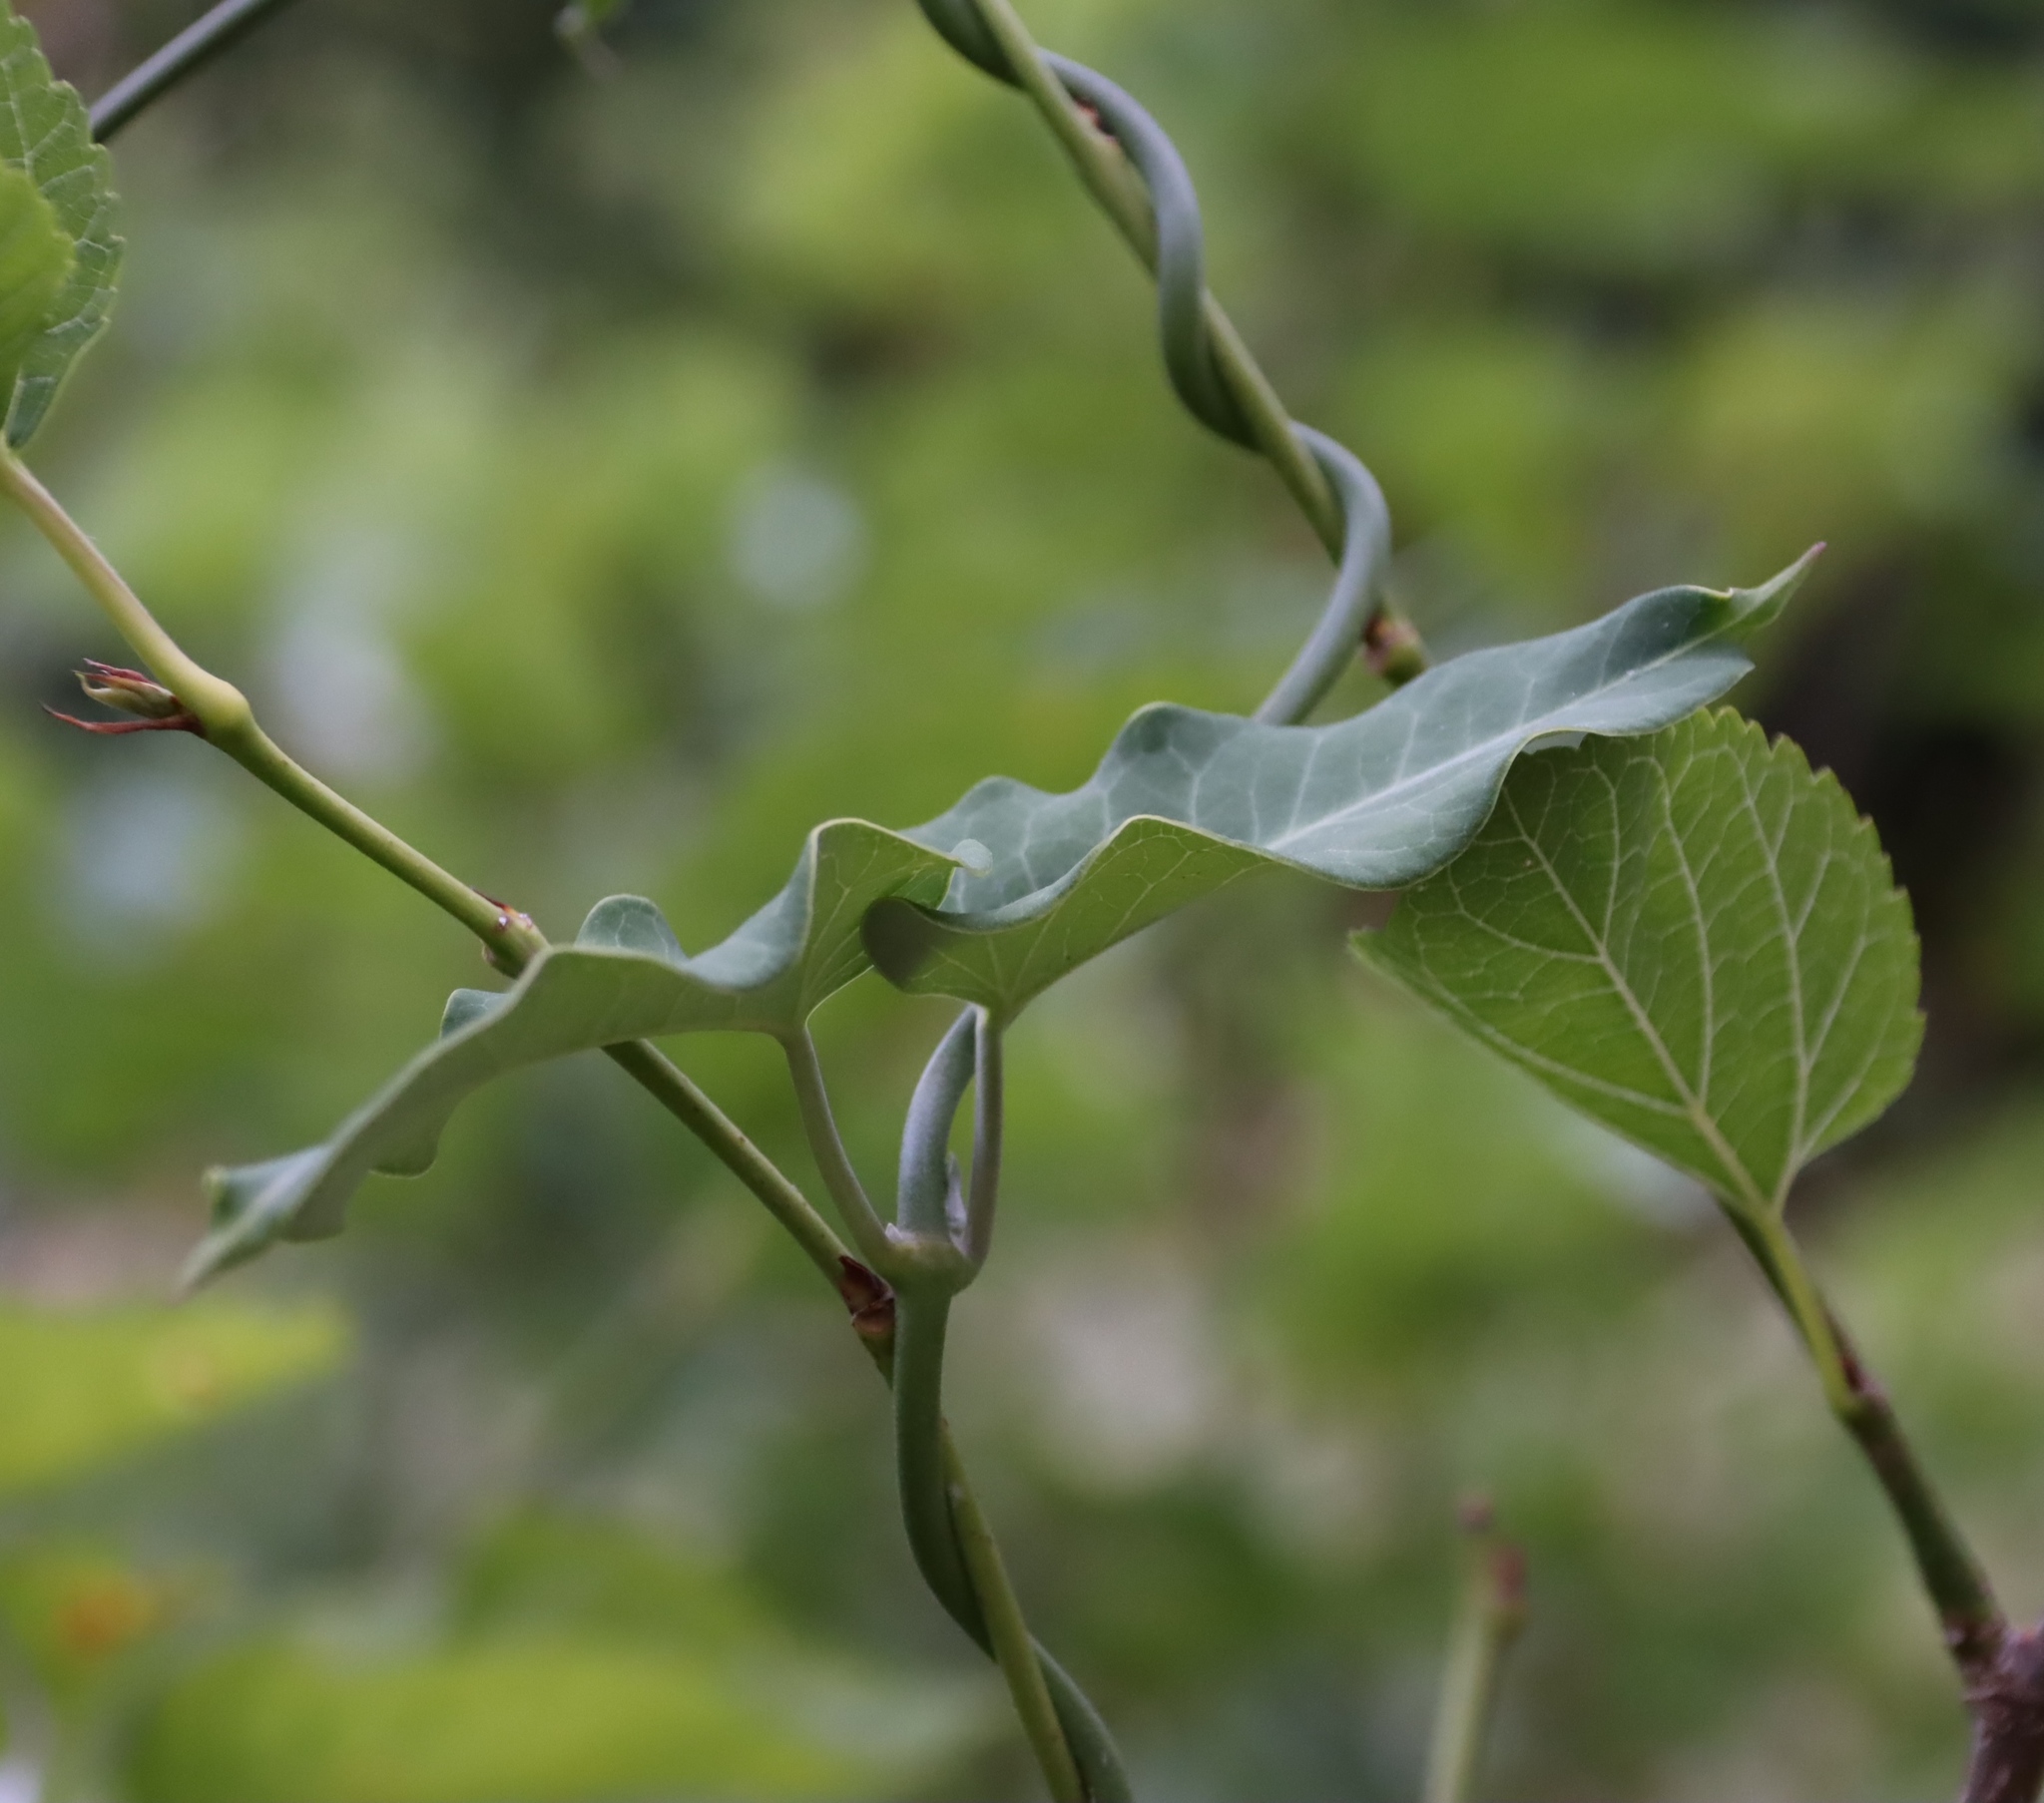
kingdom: Plantae
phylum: Tracheophyta
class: Magnoliopsida
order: Gentianales
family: Apocynaceae
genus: Araujia
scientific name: Araujia sericifera
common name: White bladderflower
